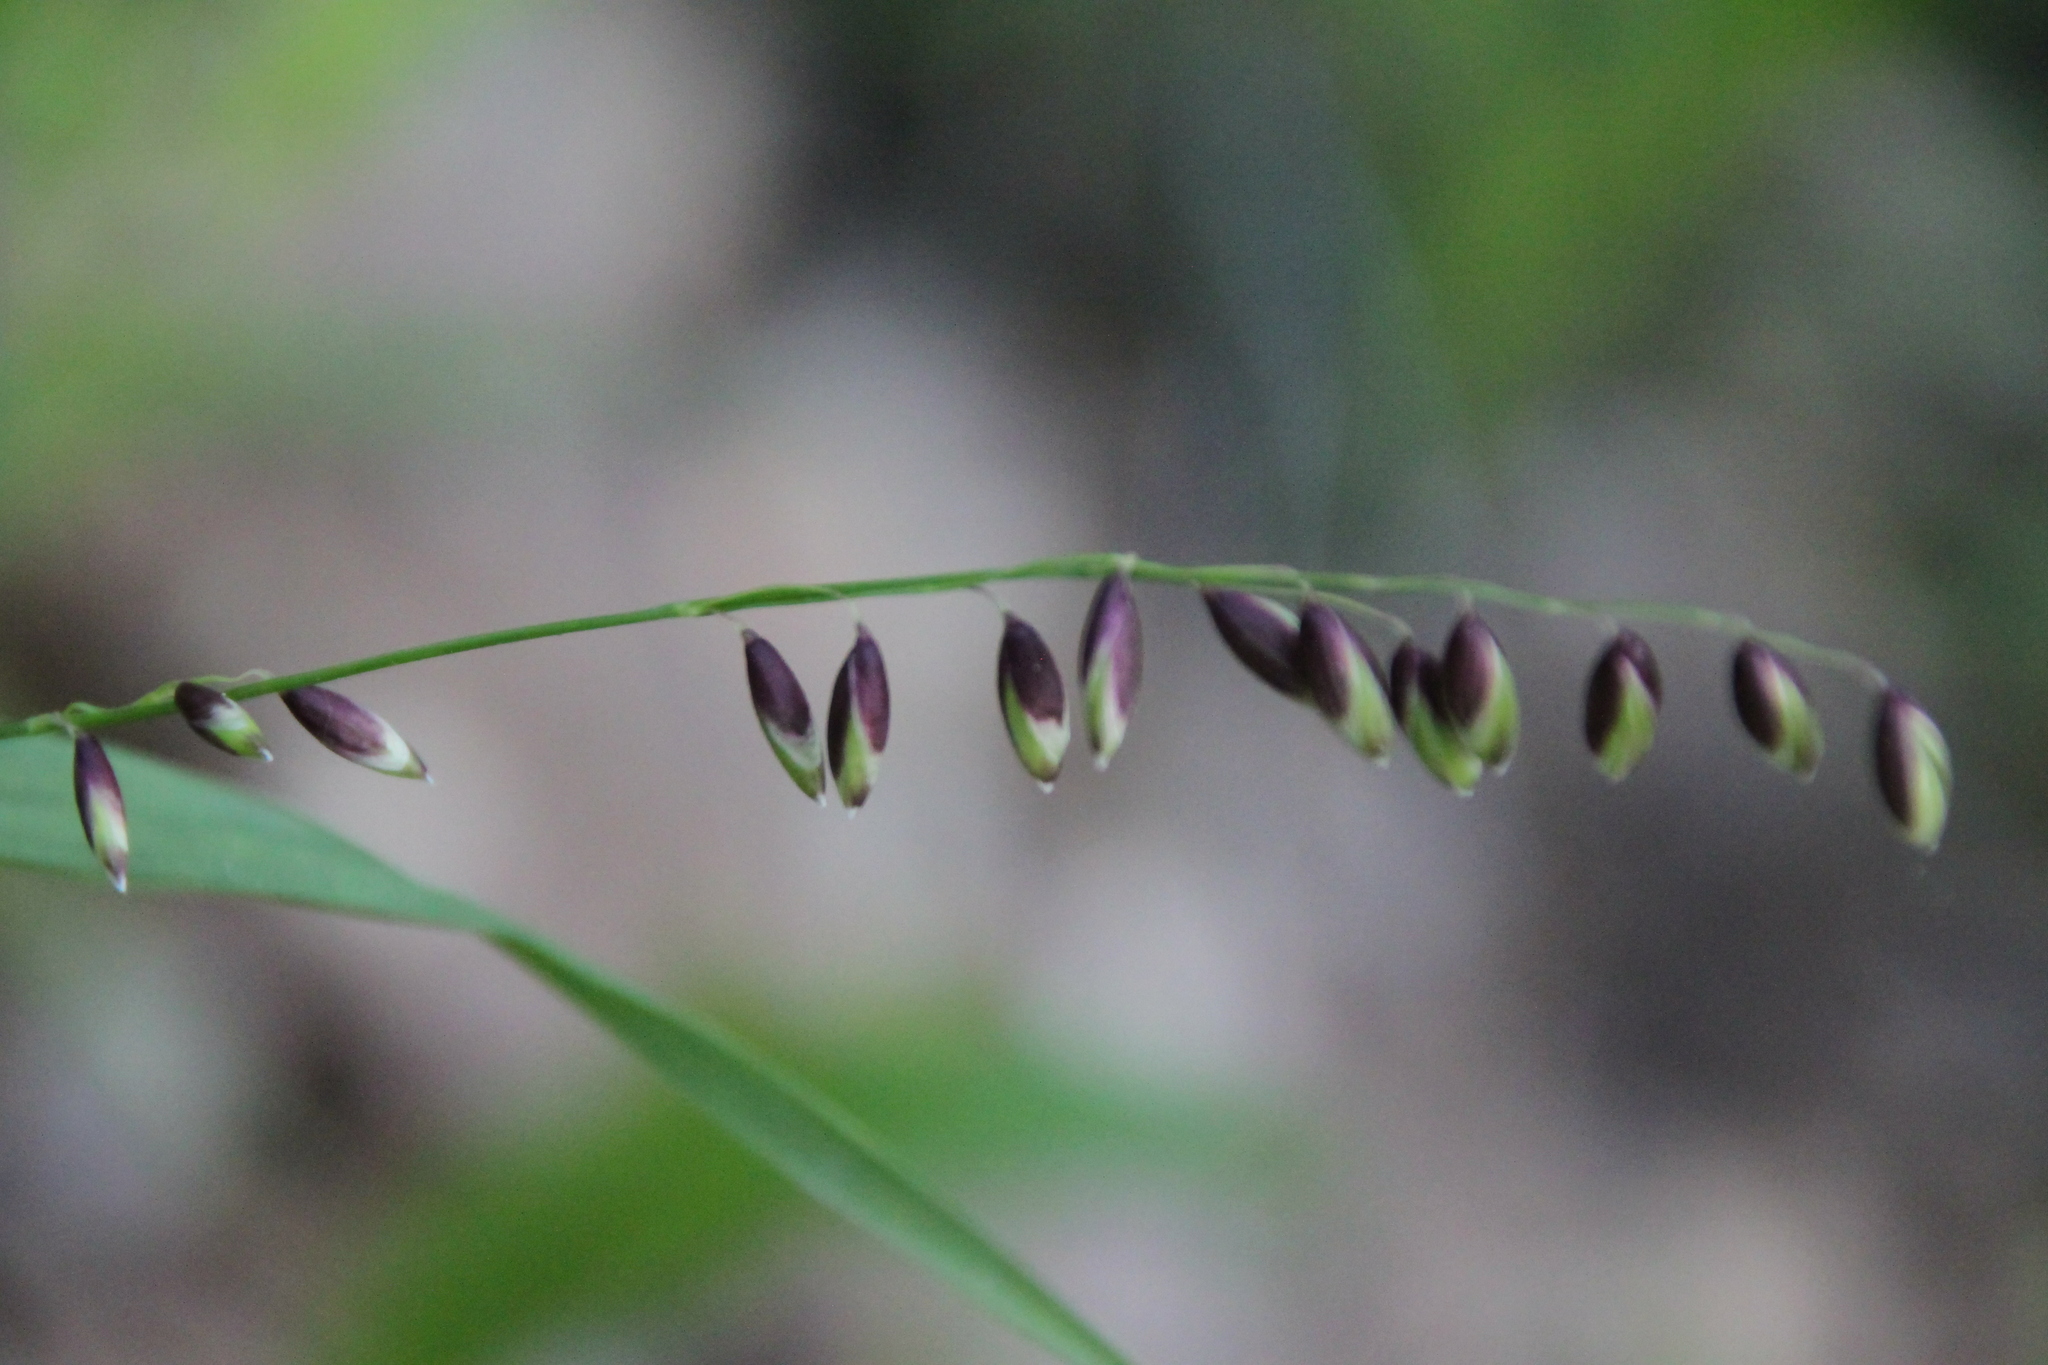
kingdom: Plantae
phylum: Tracheophyta
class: Liliopsida
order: Poales
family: Poaceae
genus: Melica
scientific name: Melica nutans
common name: Mountain melick
